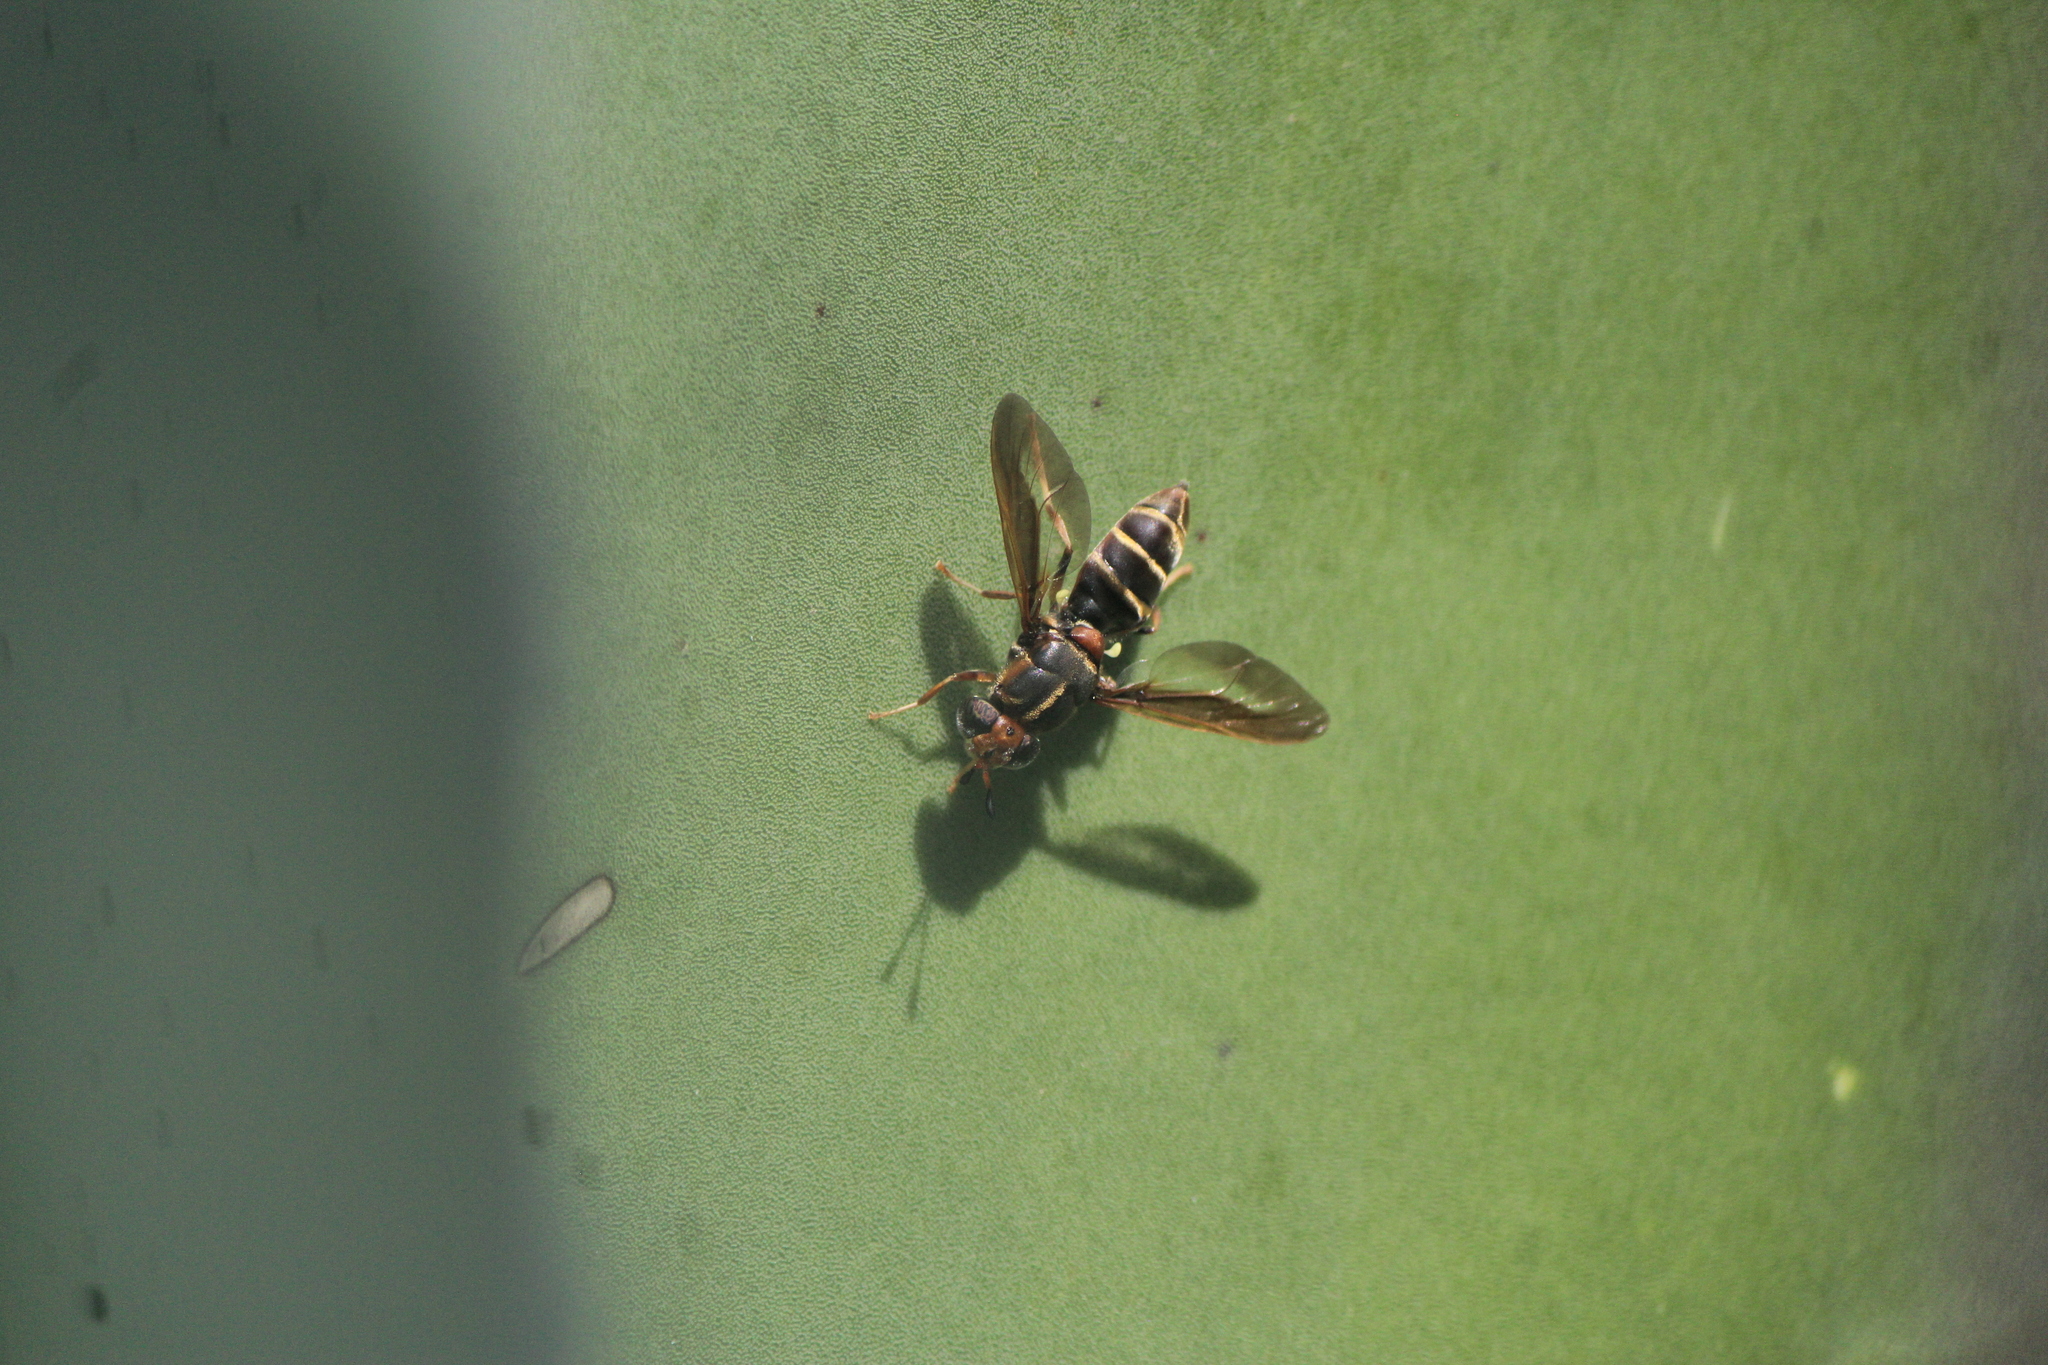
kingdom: Animalia
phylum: Arthropoda
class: Insecta
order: Diptera
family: Stratiomyidae
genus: Hermetia
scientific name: Hermetia comstocki
